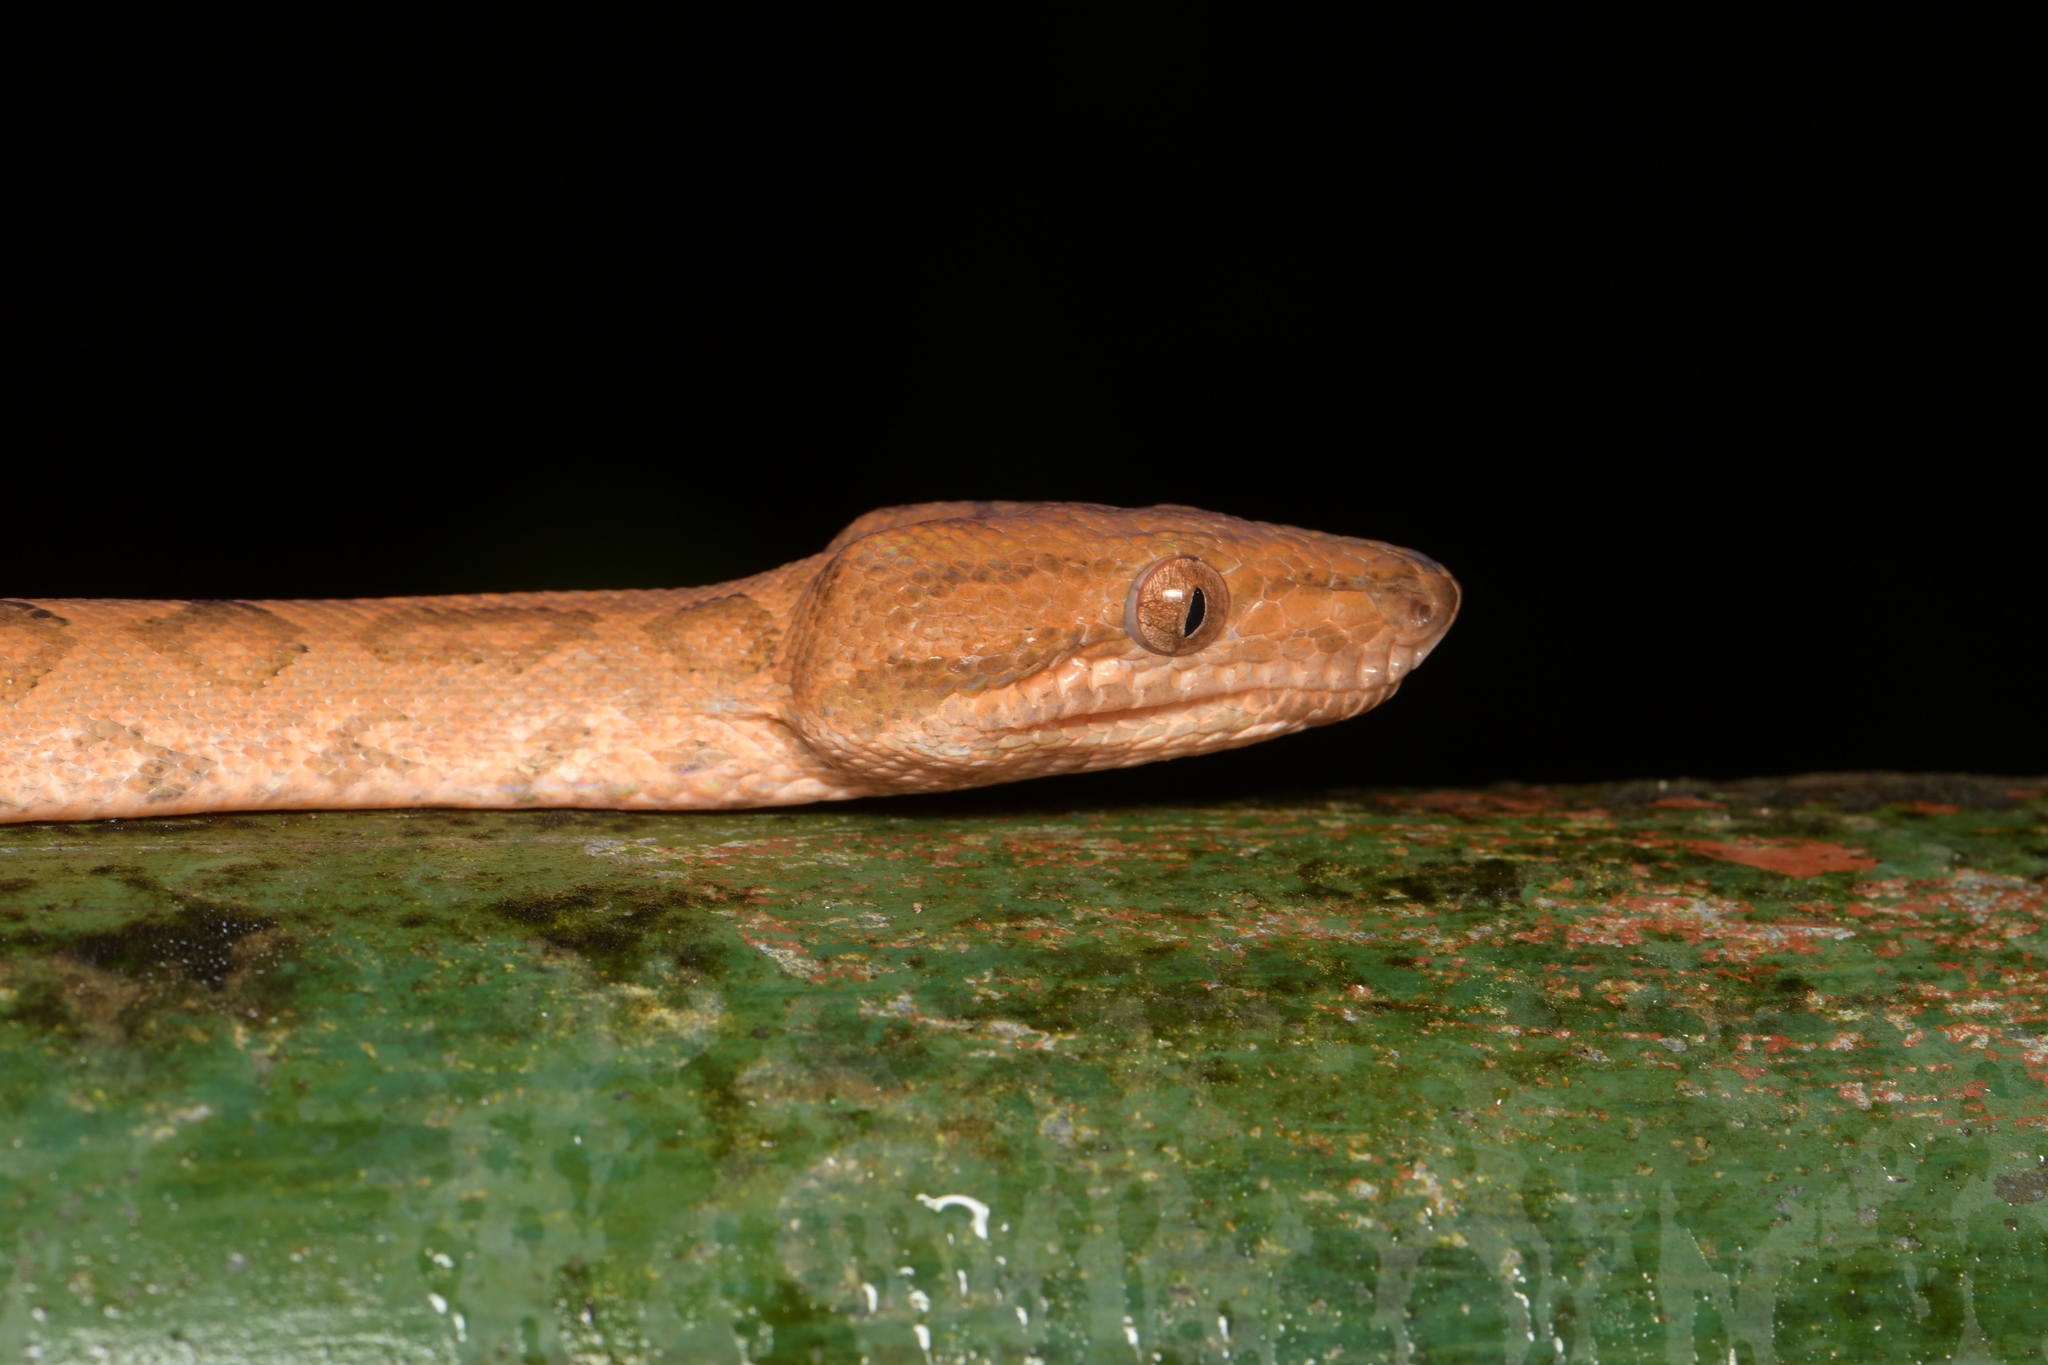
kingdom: Animalia
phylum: Chordata
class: Squamata
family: Boidae
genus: Corallus
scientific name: Corallus annulatus
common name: Ringed tree boa
